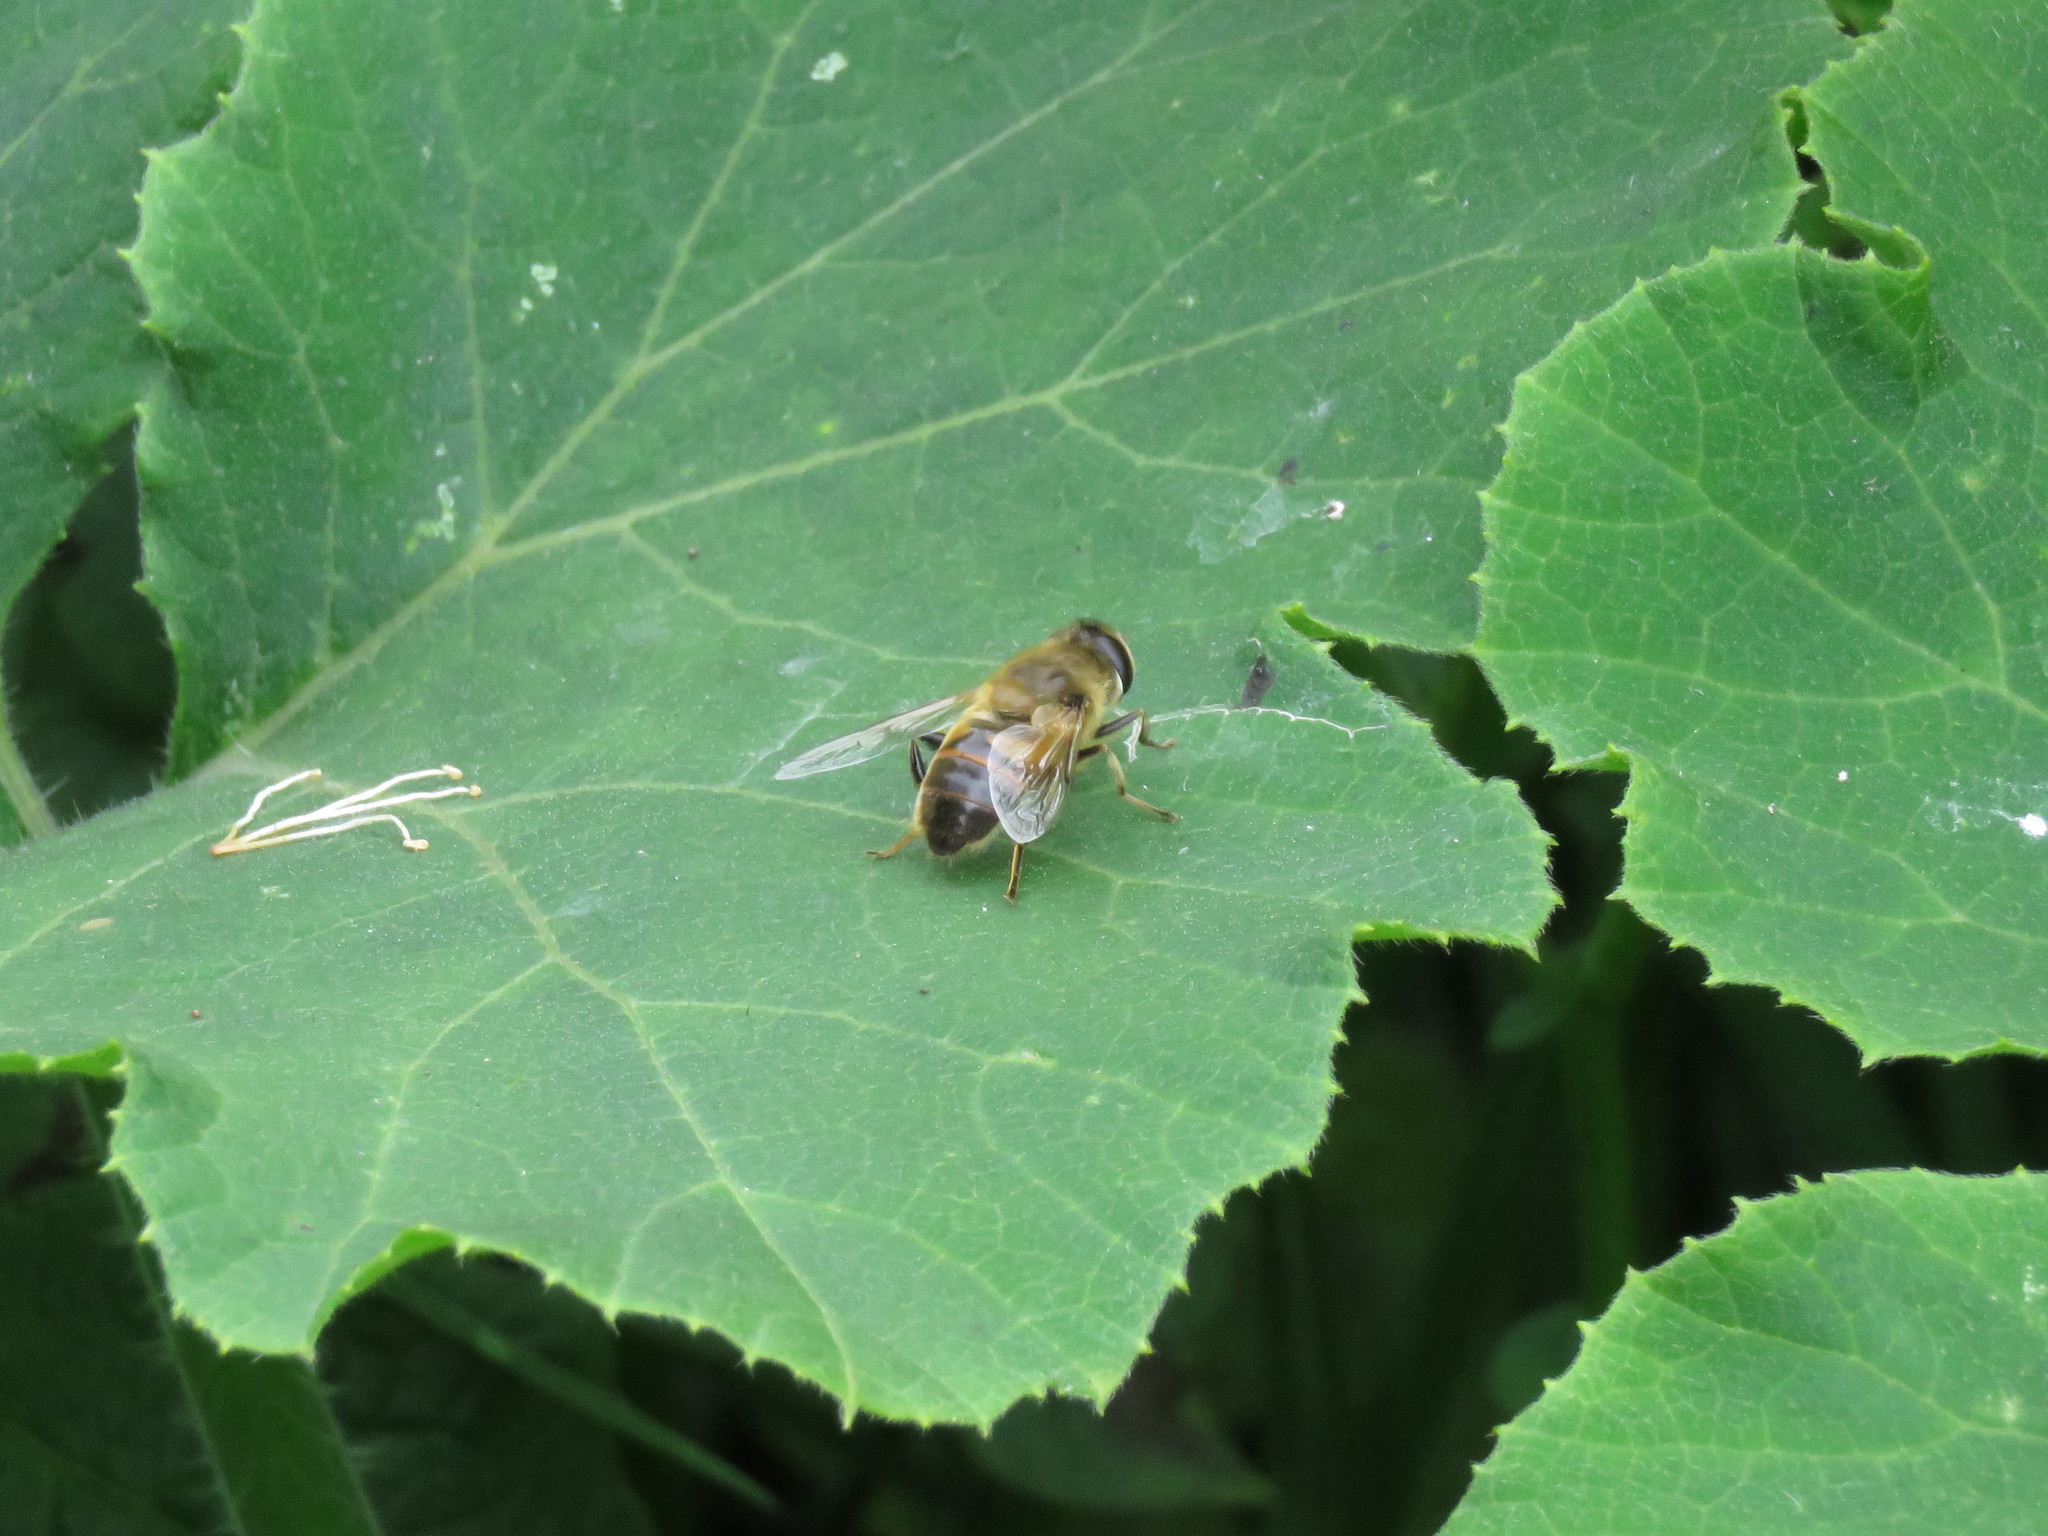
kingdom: Animalia
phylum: Arthropoda
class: Insecta
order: Diptera
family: Syrphidae
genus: Eristalis
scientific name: Eristalis tenax
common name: Drone fly
